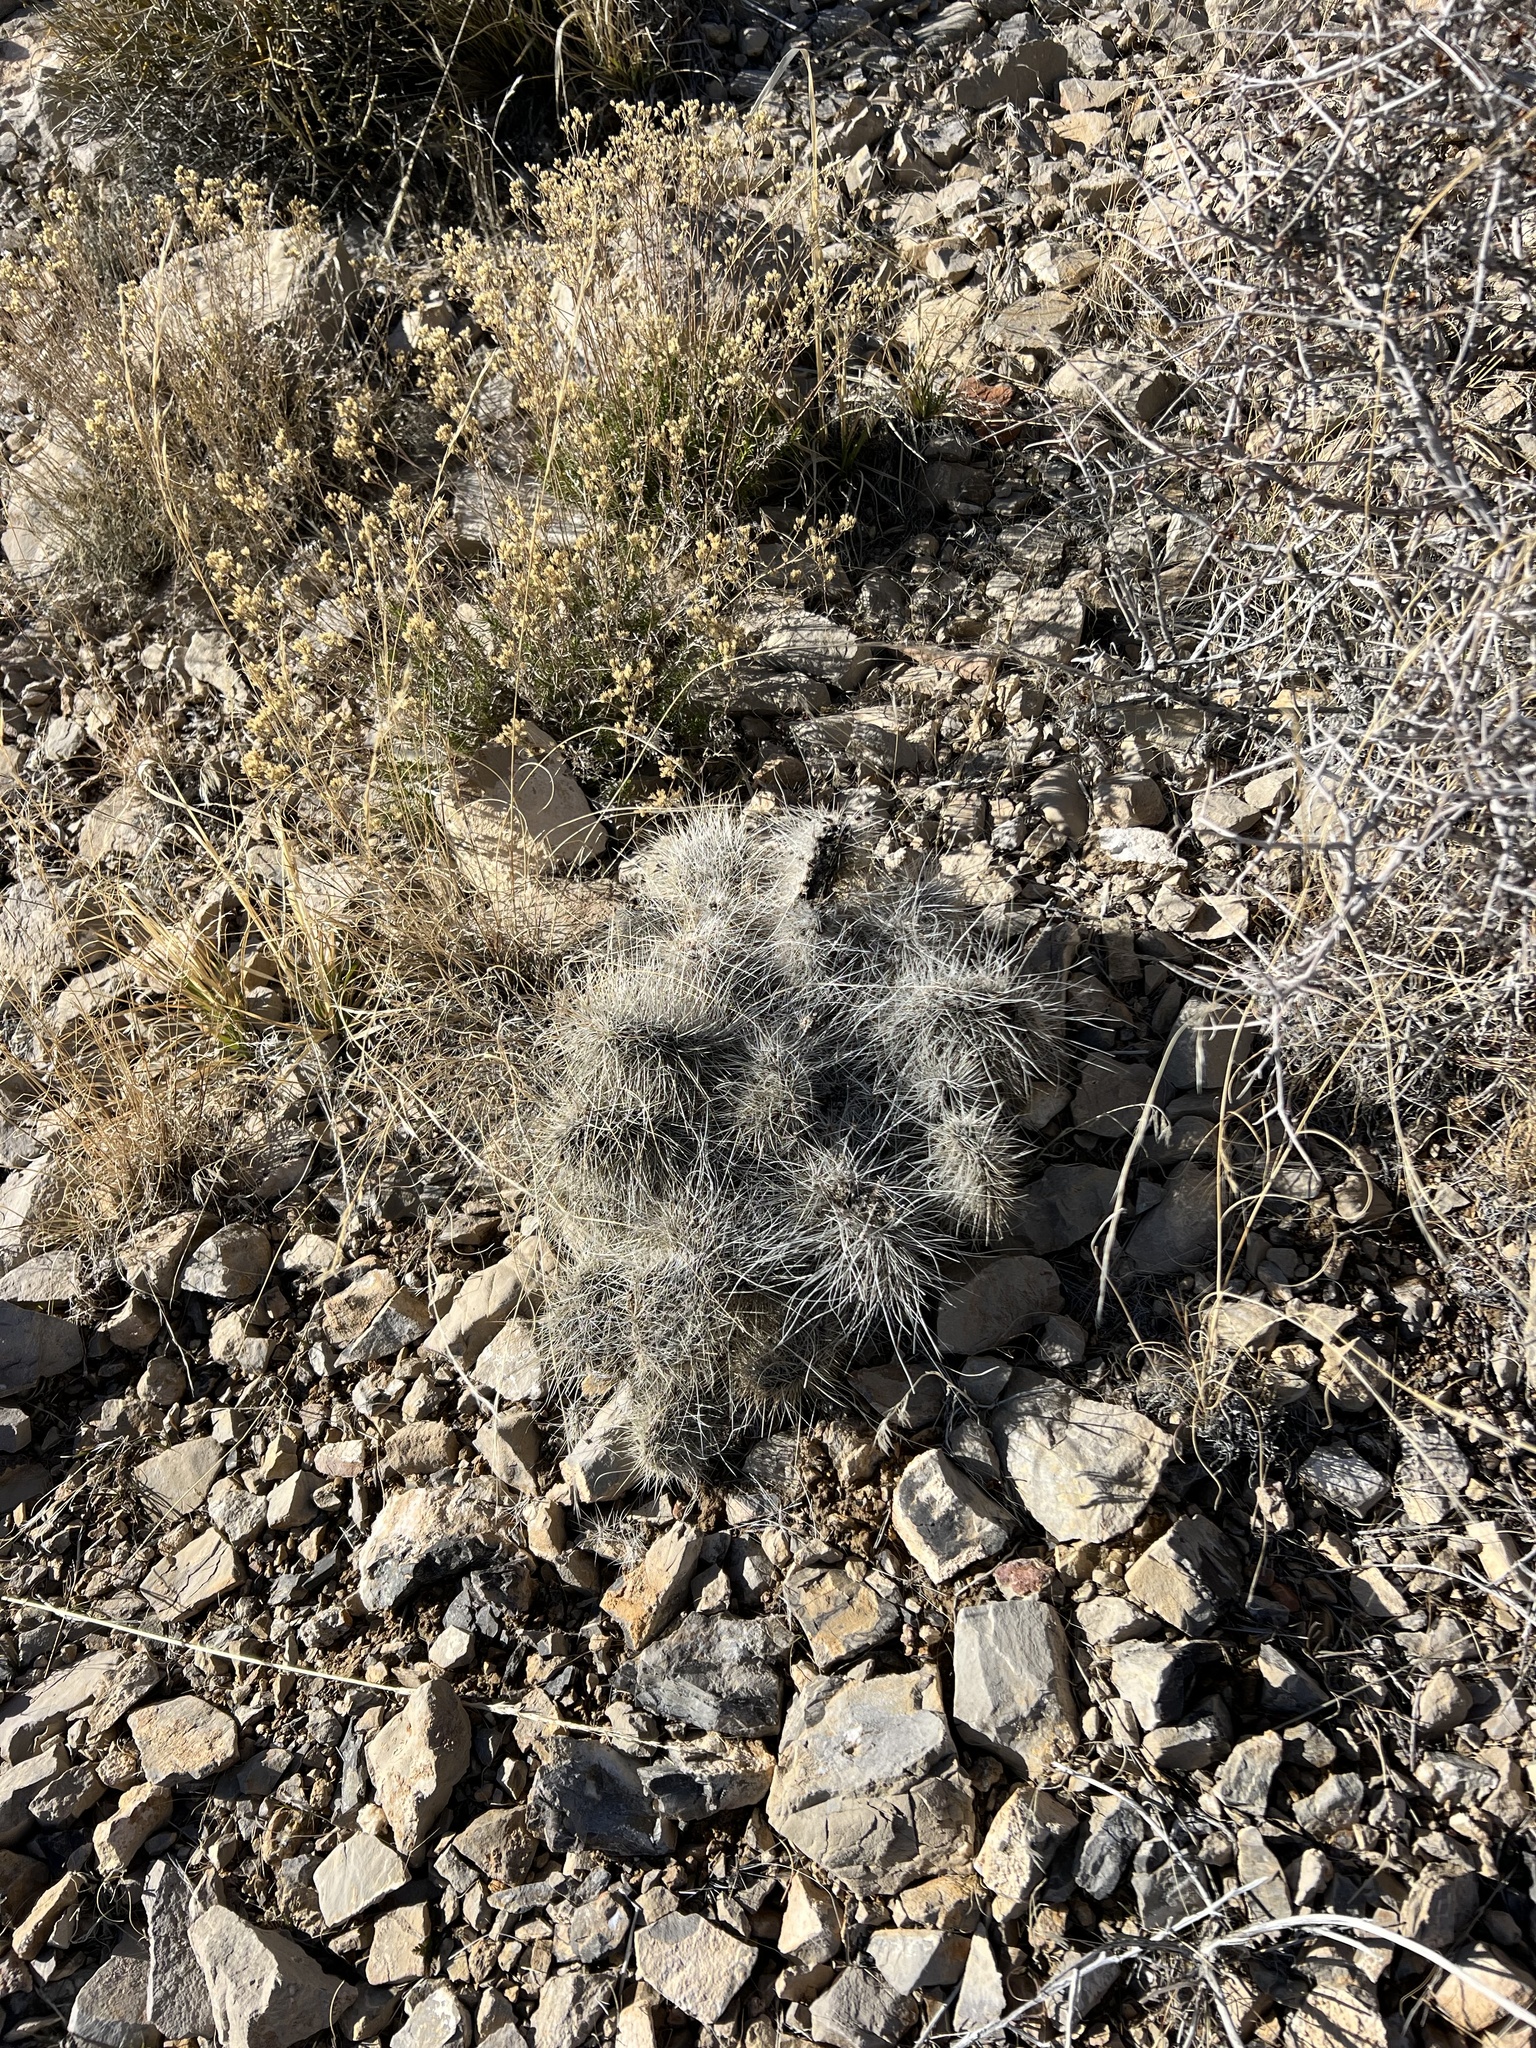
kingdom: Plantae
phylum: Tracheophyta
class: Magnoliopsida
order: Caryophyllales
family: Cactaceae
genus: Opuntia
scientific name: Opuntia polyacantha
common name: Plains prickly-pear
